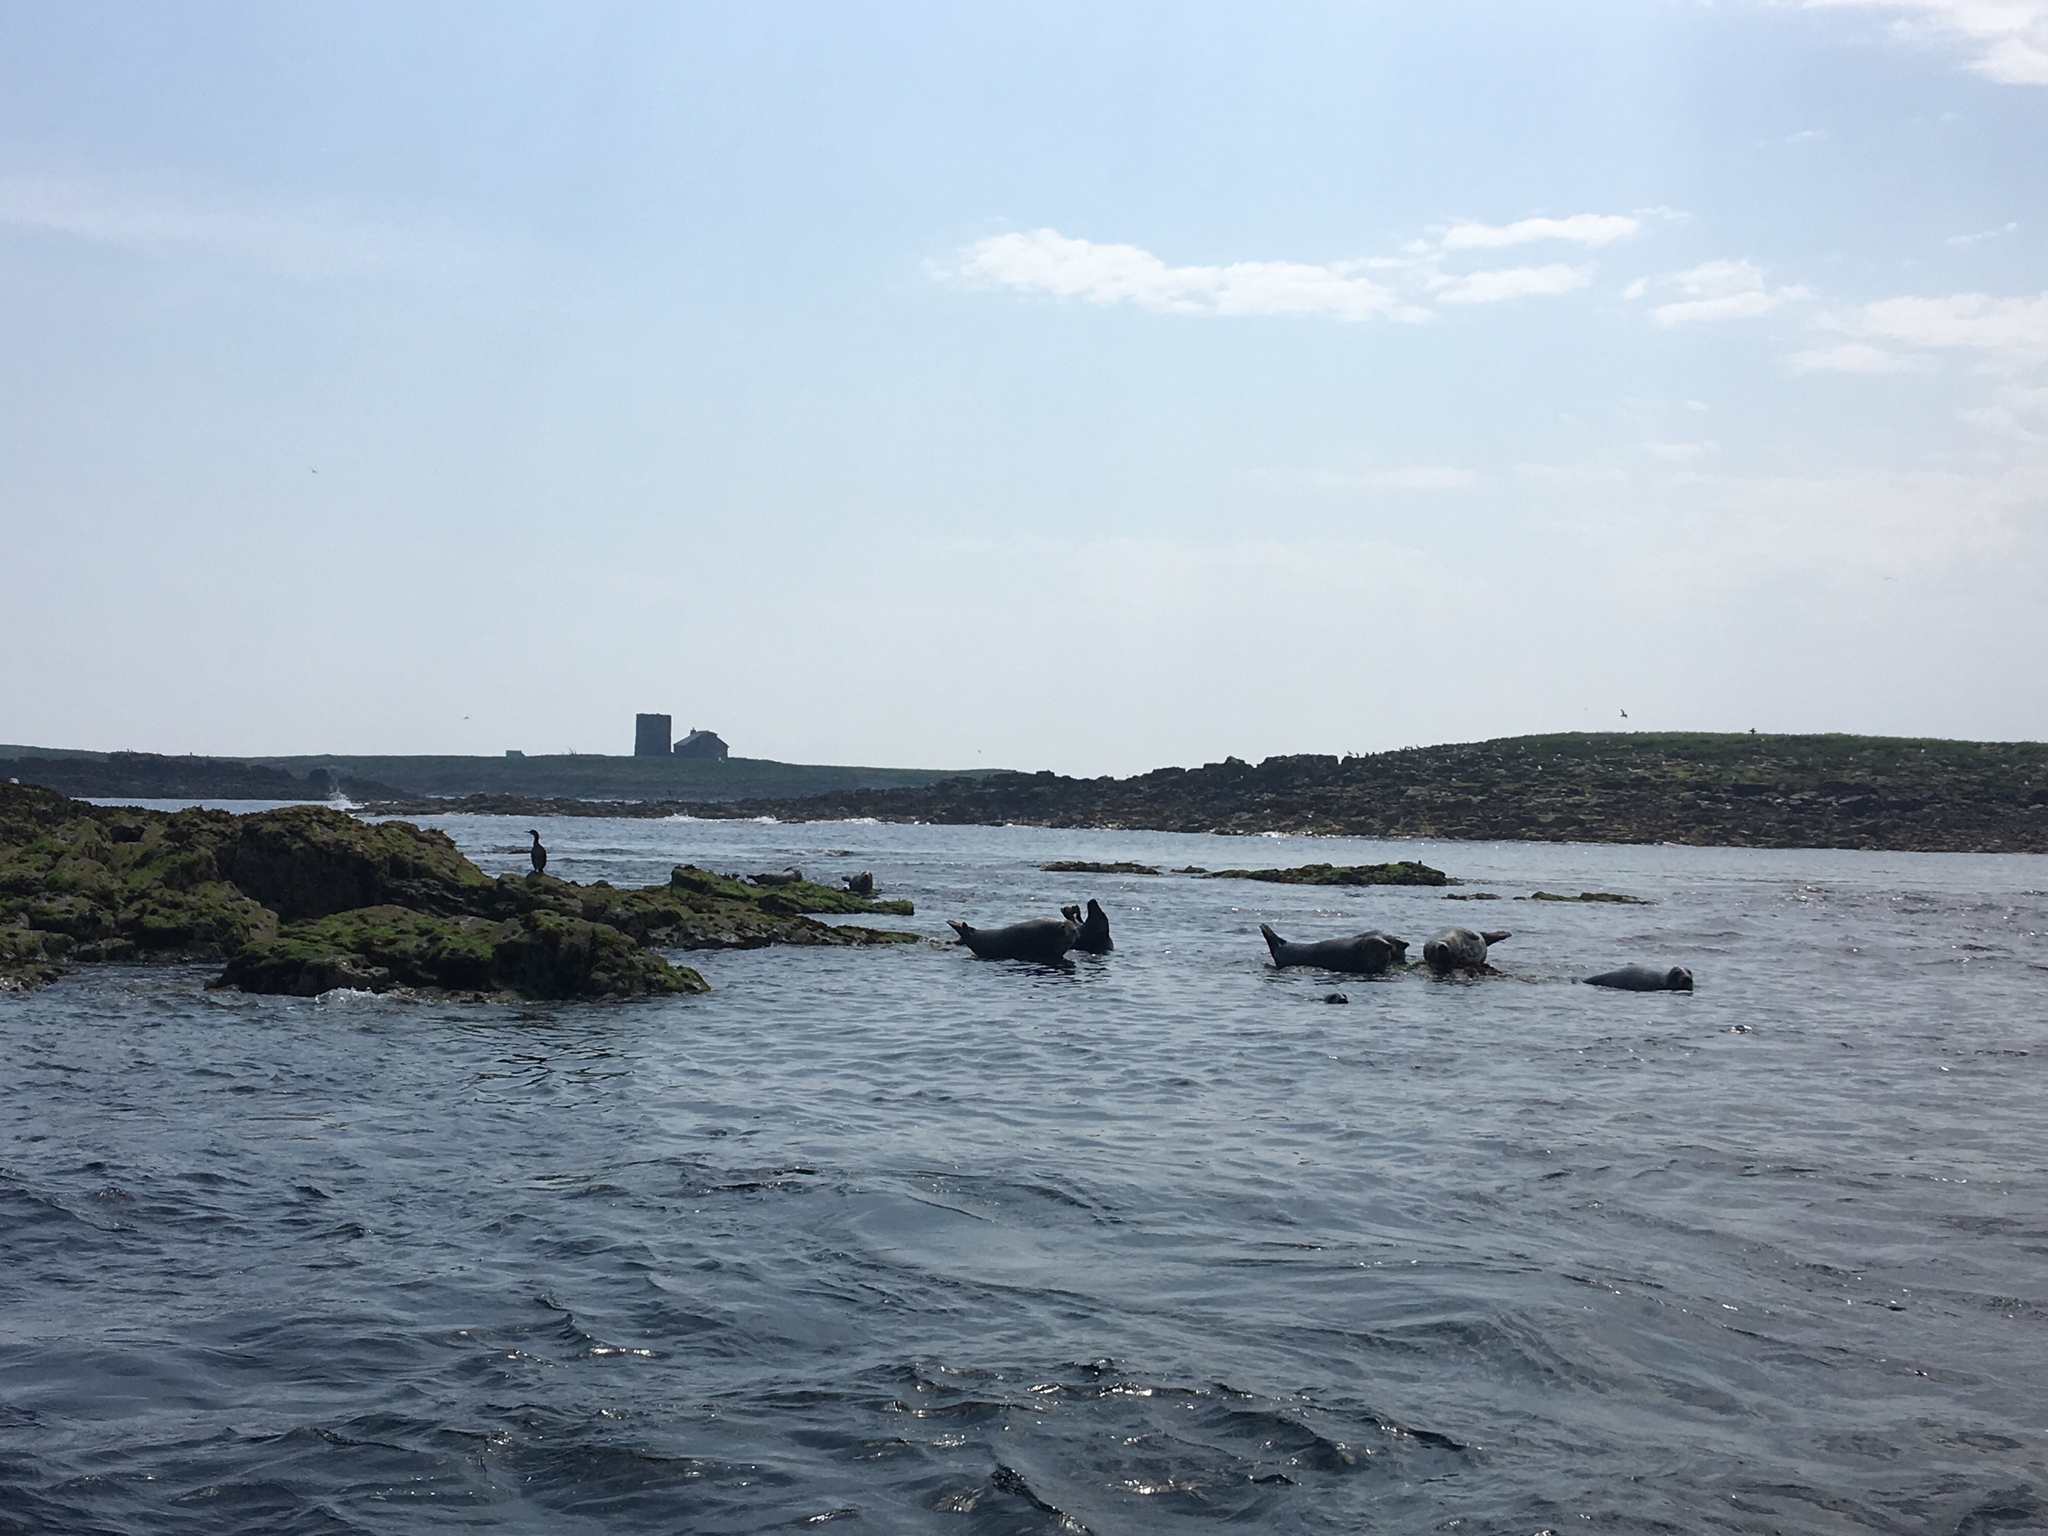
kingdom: Animalia
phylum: Chordata
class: Mammalia
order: Carnivora
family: Phocidae
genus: Halichoerus
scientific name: Halichoerus grypus
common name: Grey seal
